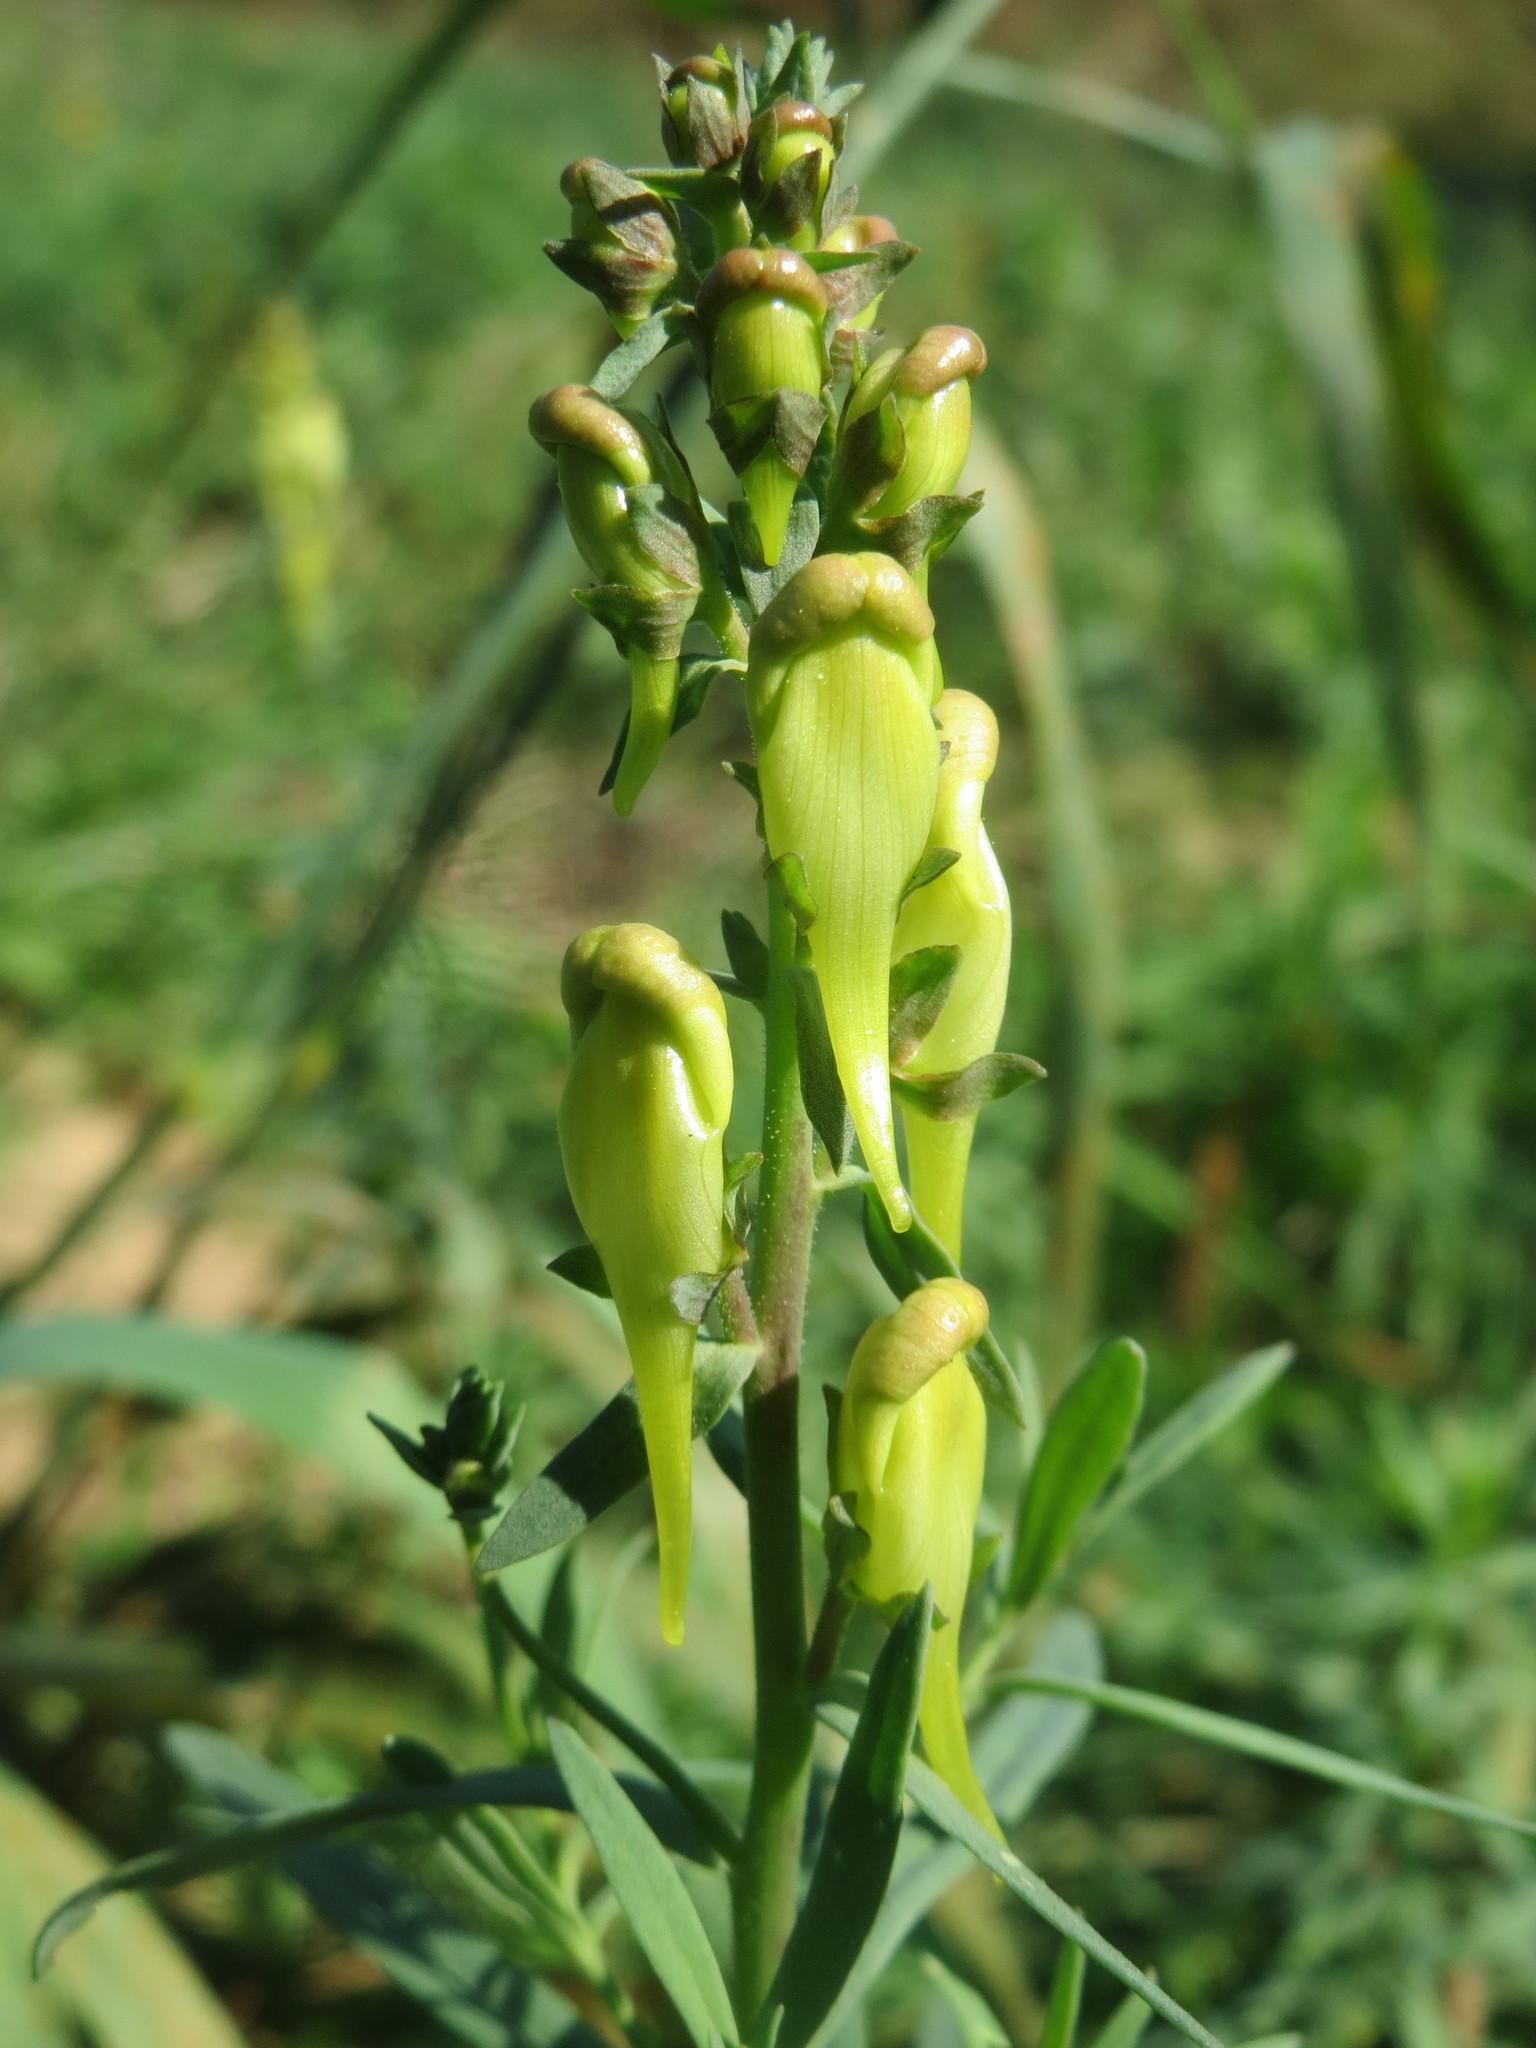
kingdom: Plantae
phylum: Tracheophyta
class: Magnoliopsida
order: Lamiales
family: Plantaginaceae
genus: Linaria
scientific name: Linaria vulgaris
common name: Butter and eggs
